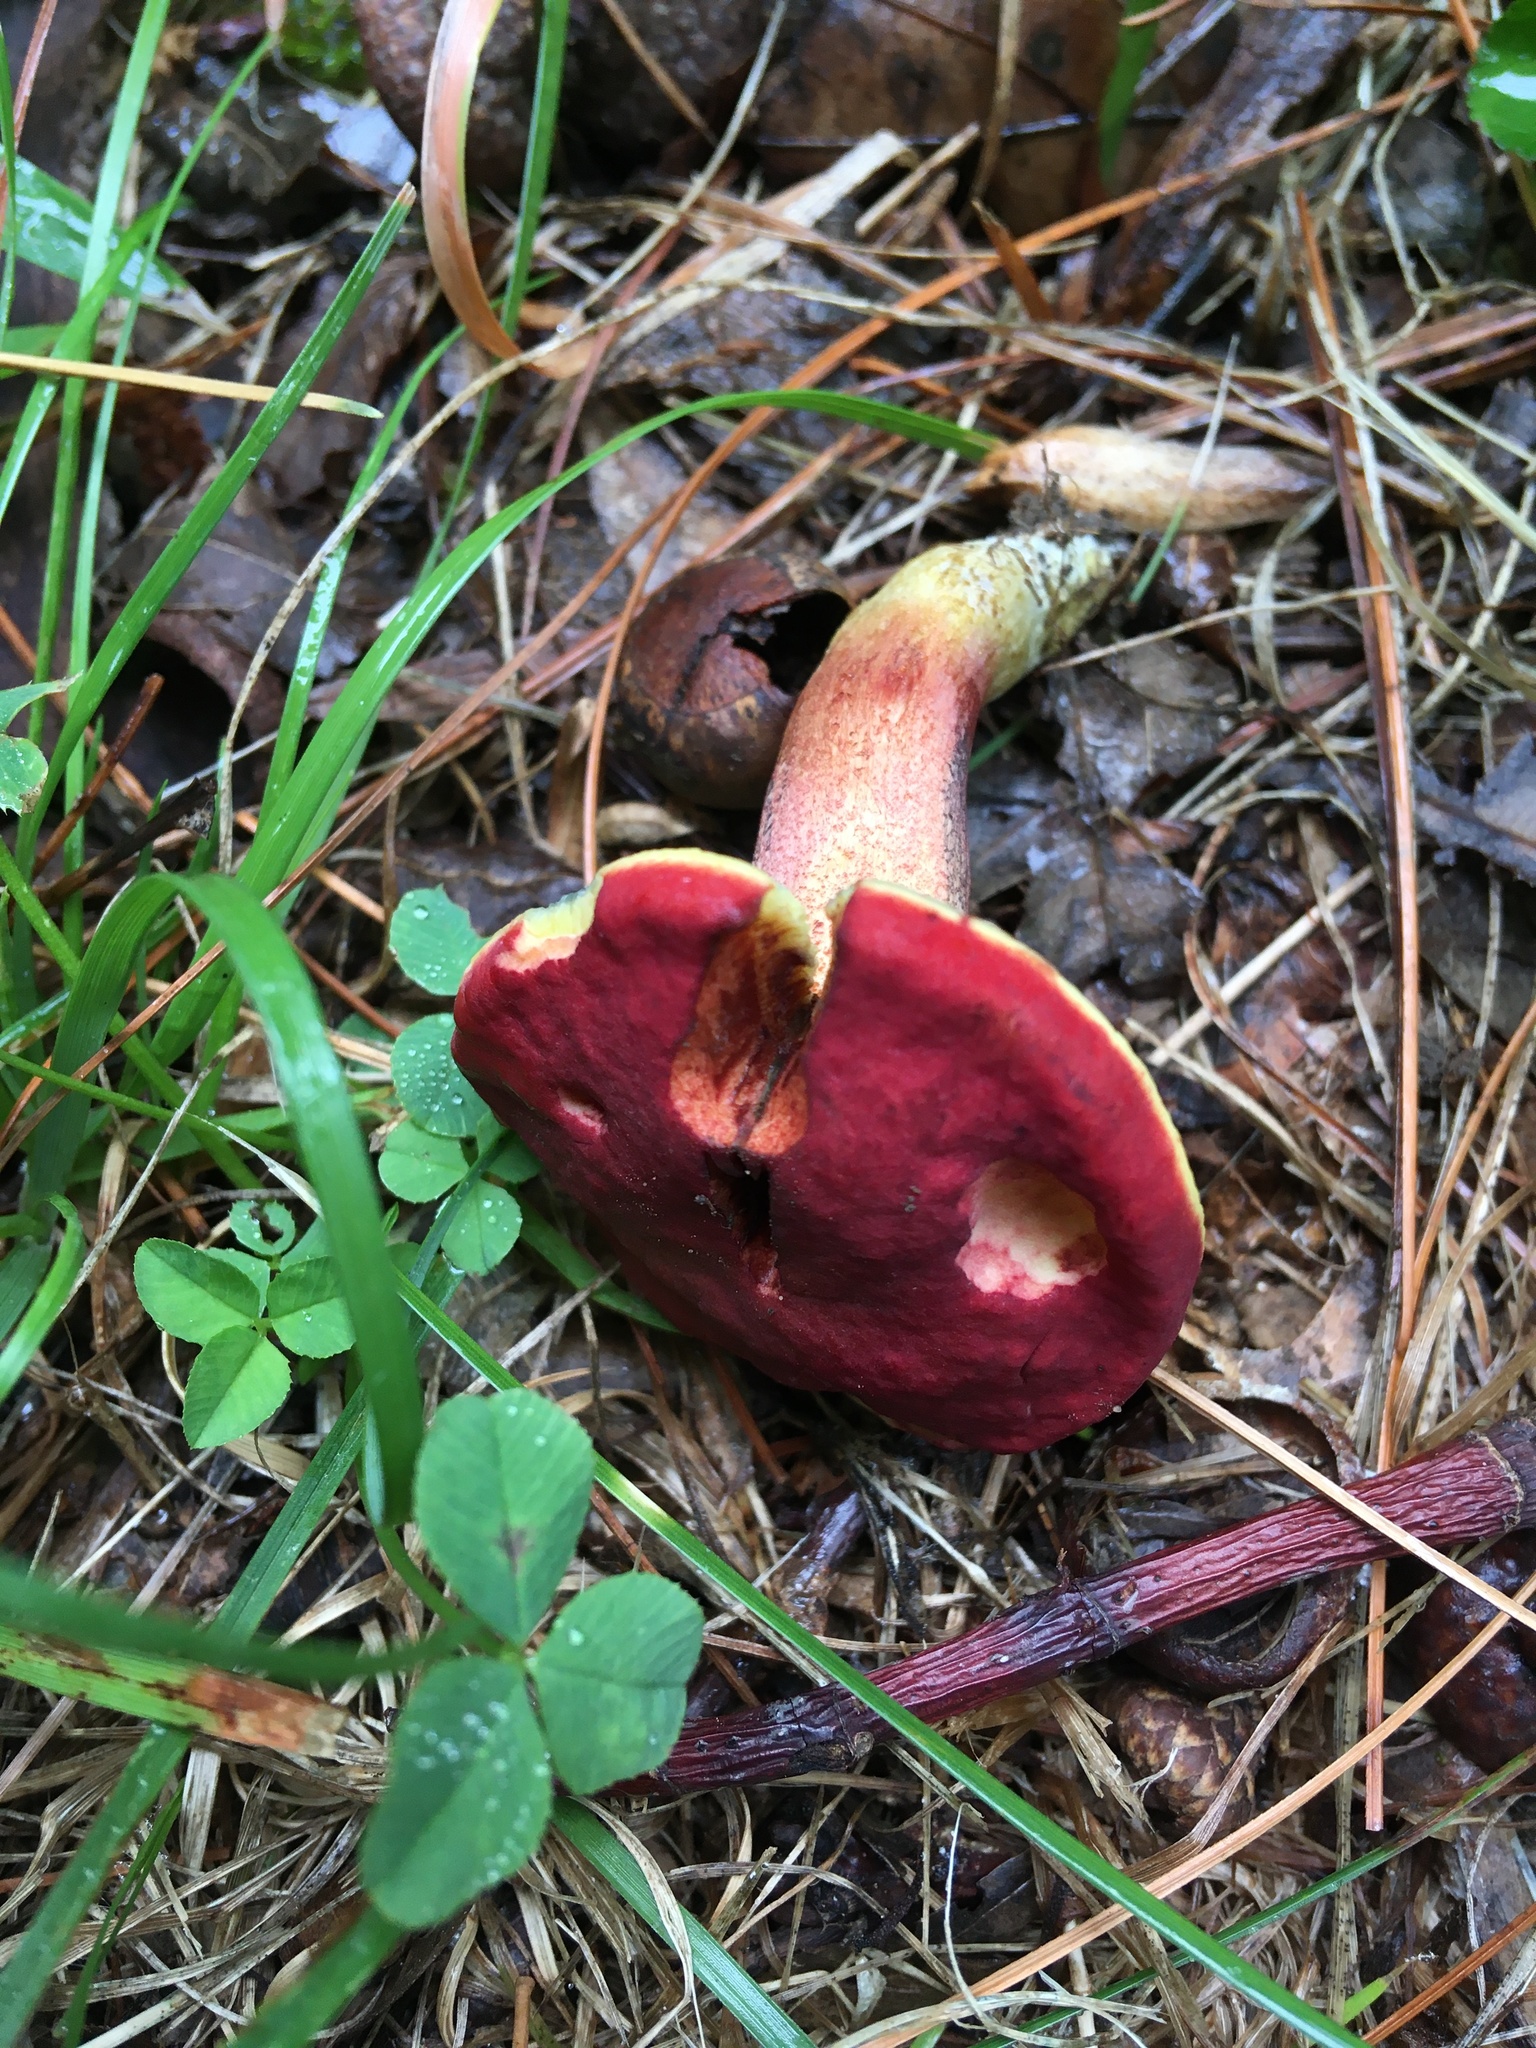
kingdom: Fungi
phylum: Basidiomycota
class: Agaricomycetes
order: Boletales
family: Boletaceae
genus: Hortiboletus
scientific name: Hortiboletus rubellus
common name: Ruby bolete
